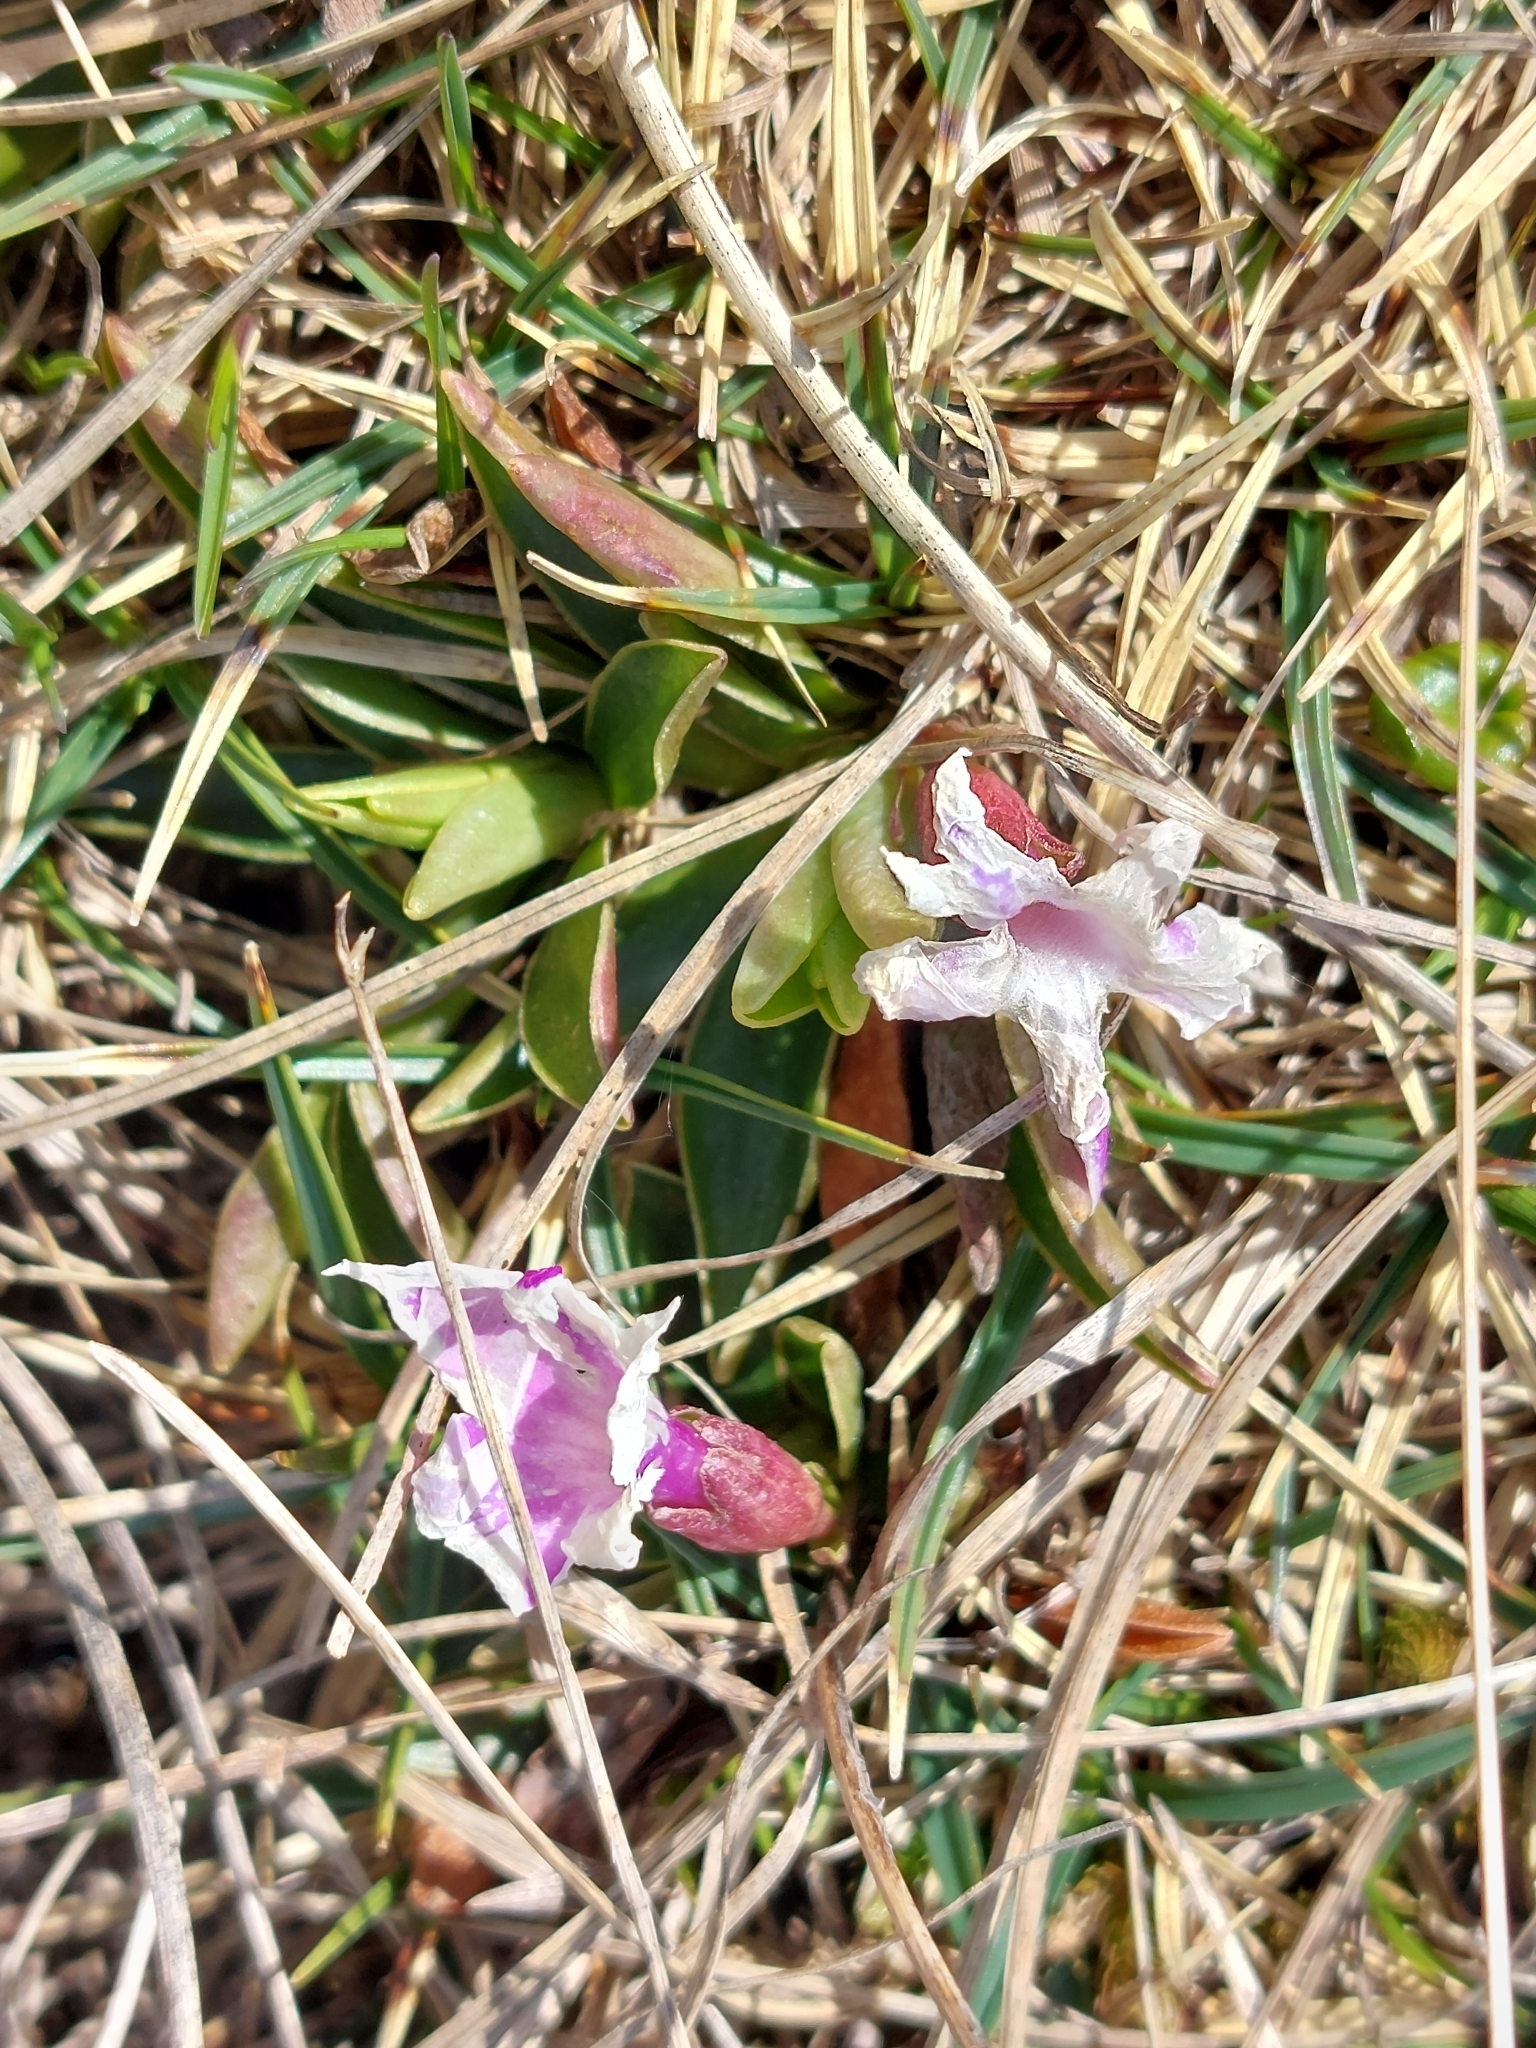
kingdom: Plantae
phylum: Tracheophyta
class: Magnoliopsida
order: Ericales
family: Primulaceae
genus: Primula
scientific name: Primula wulfeniana
